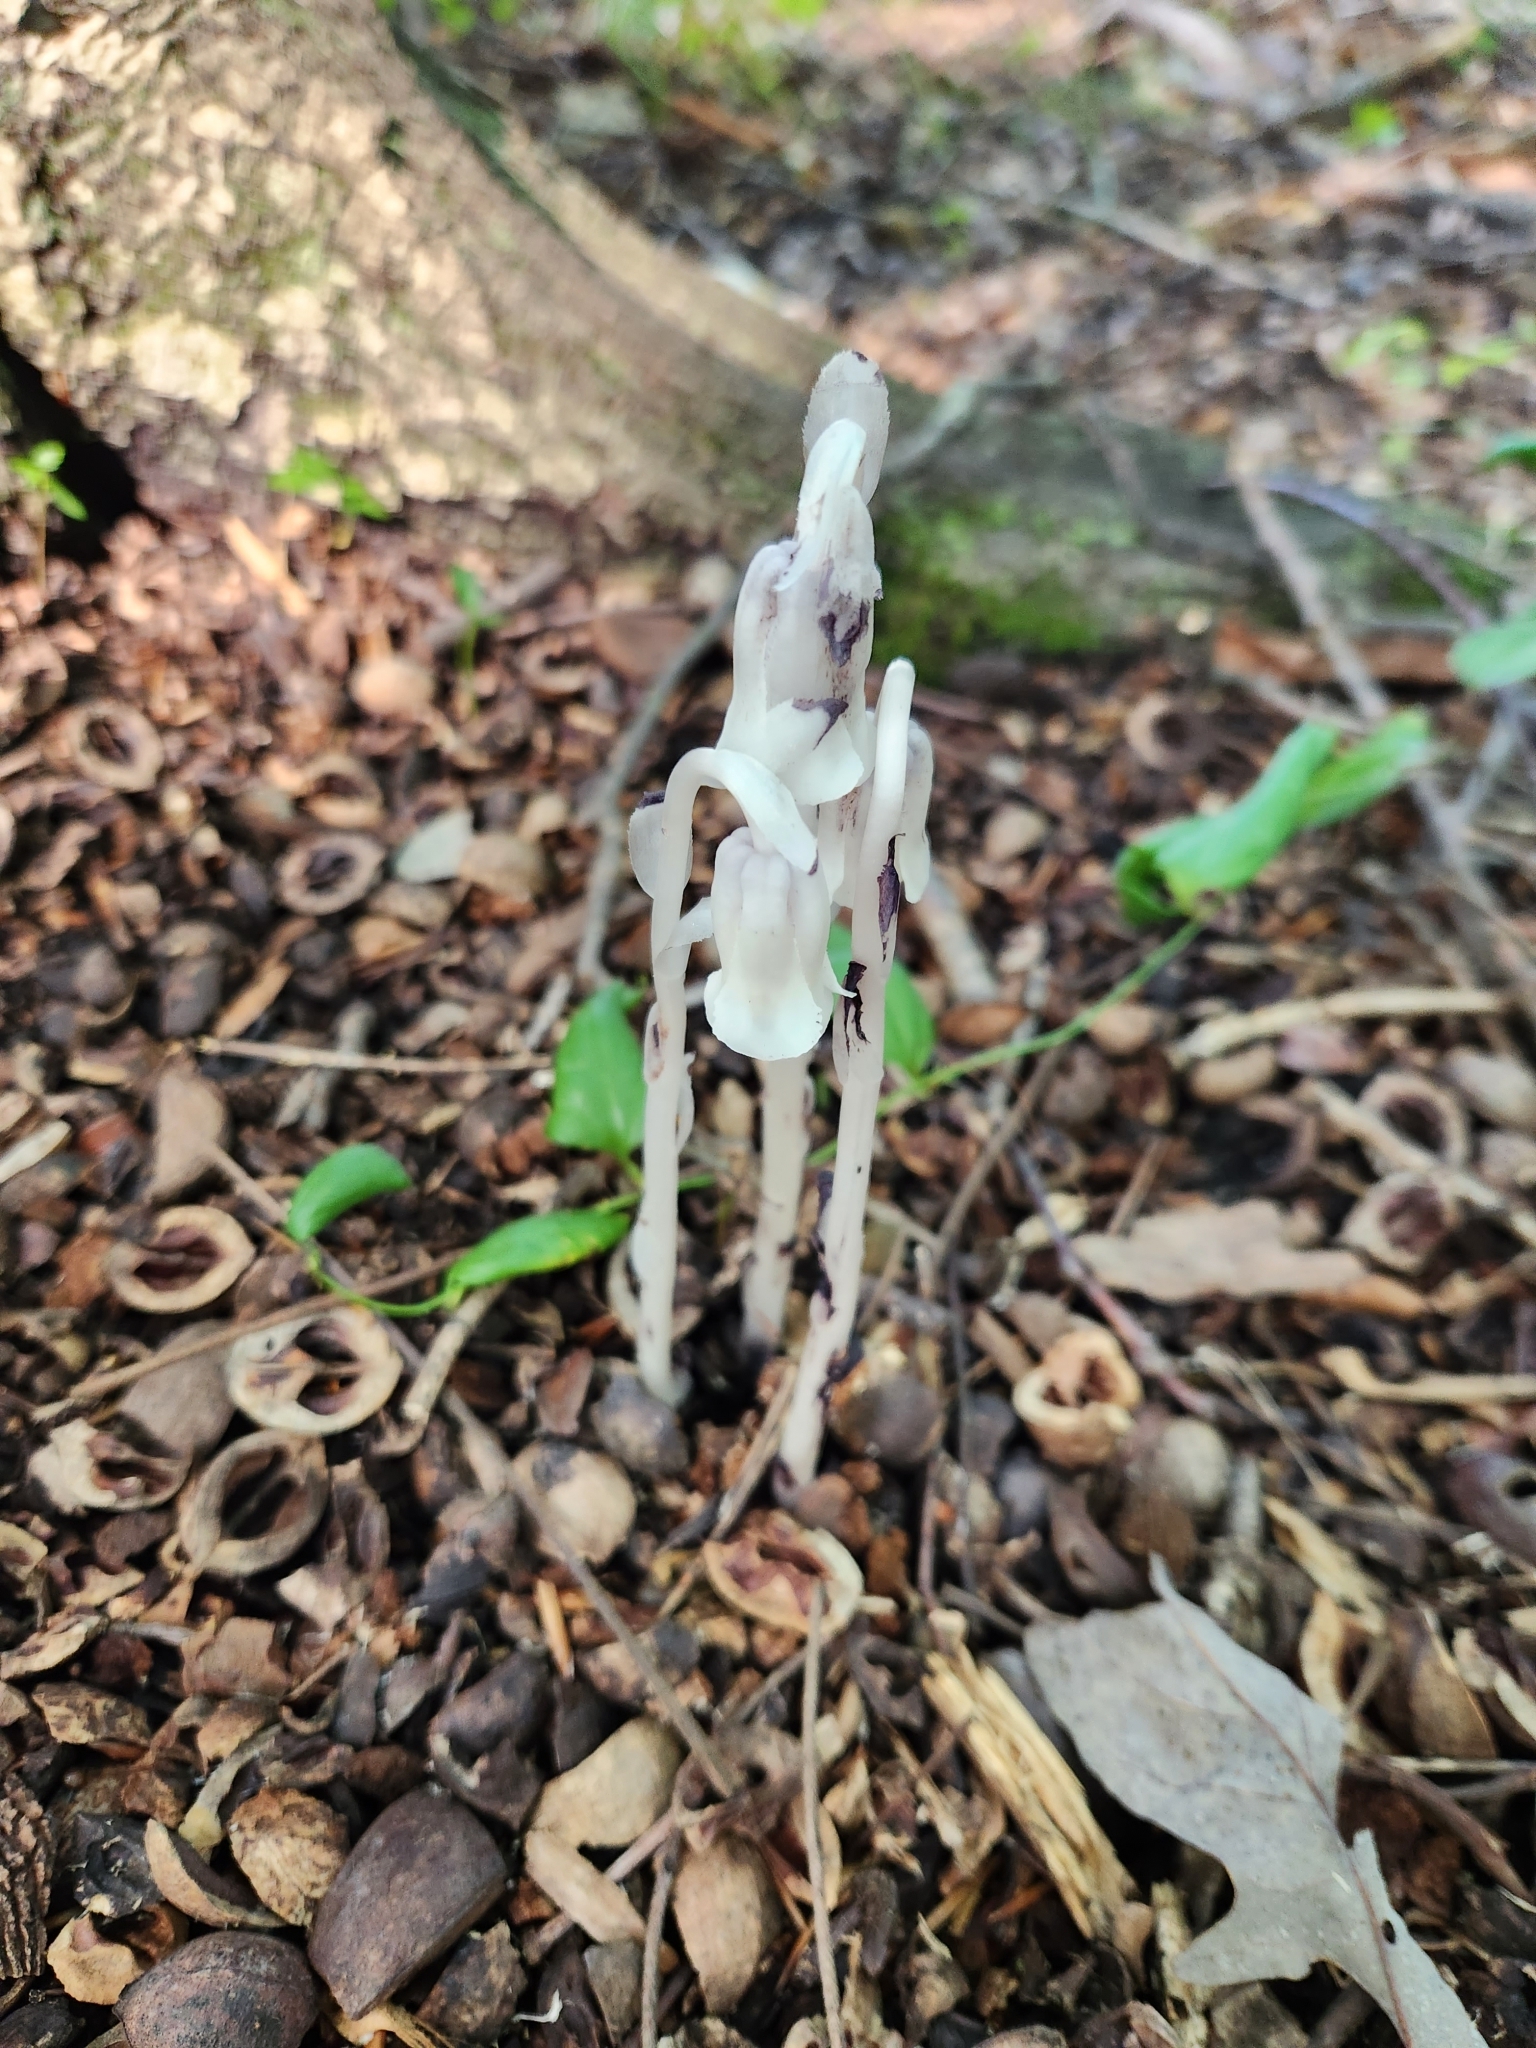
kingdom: Plantae
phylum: Tracheophyta
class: Magnoliopsida
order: Ericales
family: Ericaceae
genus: Monotropa
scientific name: Monotropa uniflora
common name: Convulsion root
